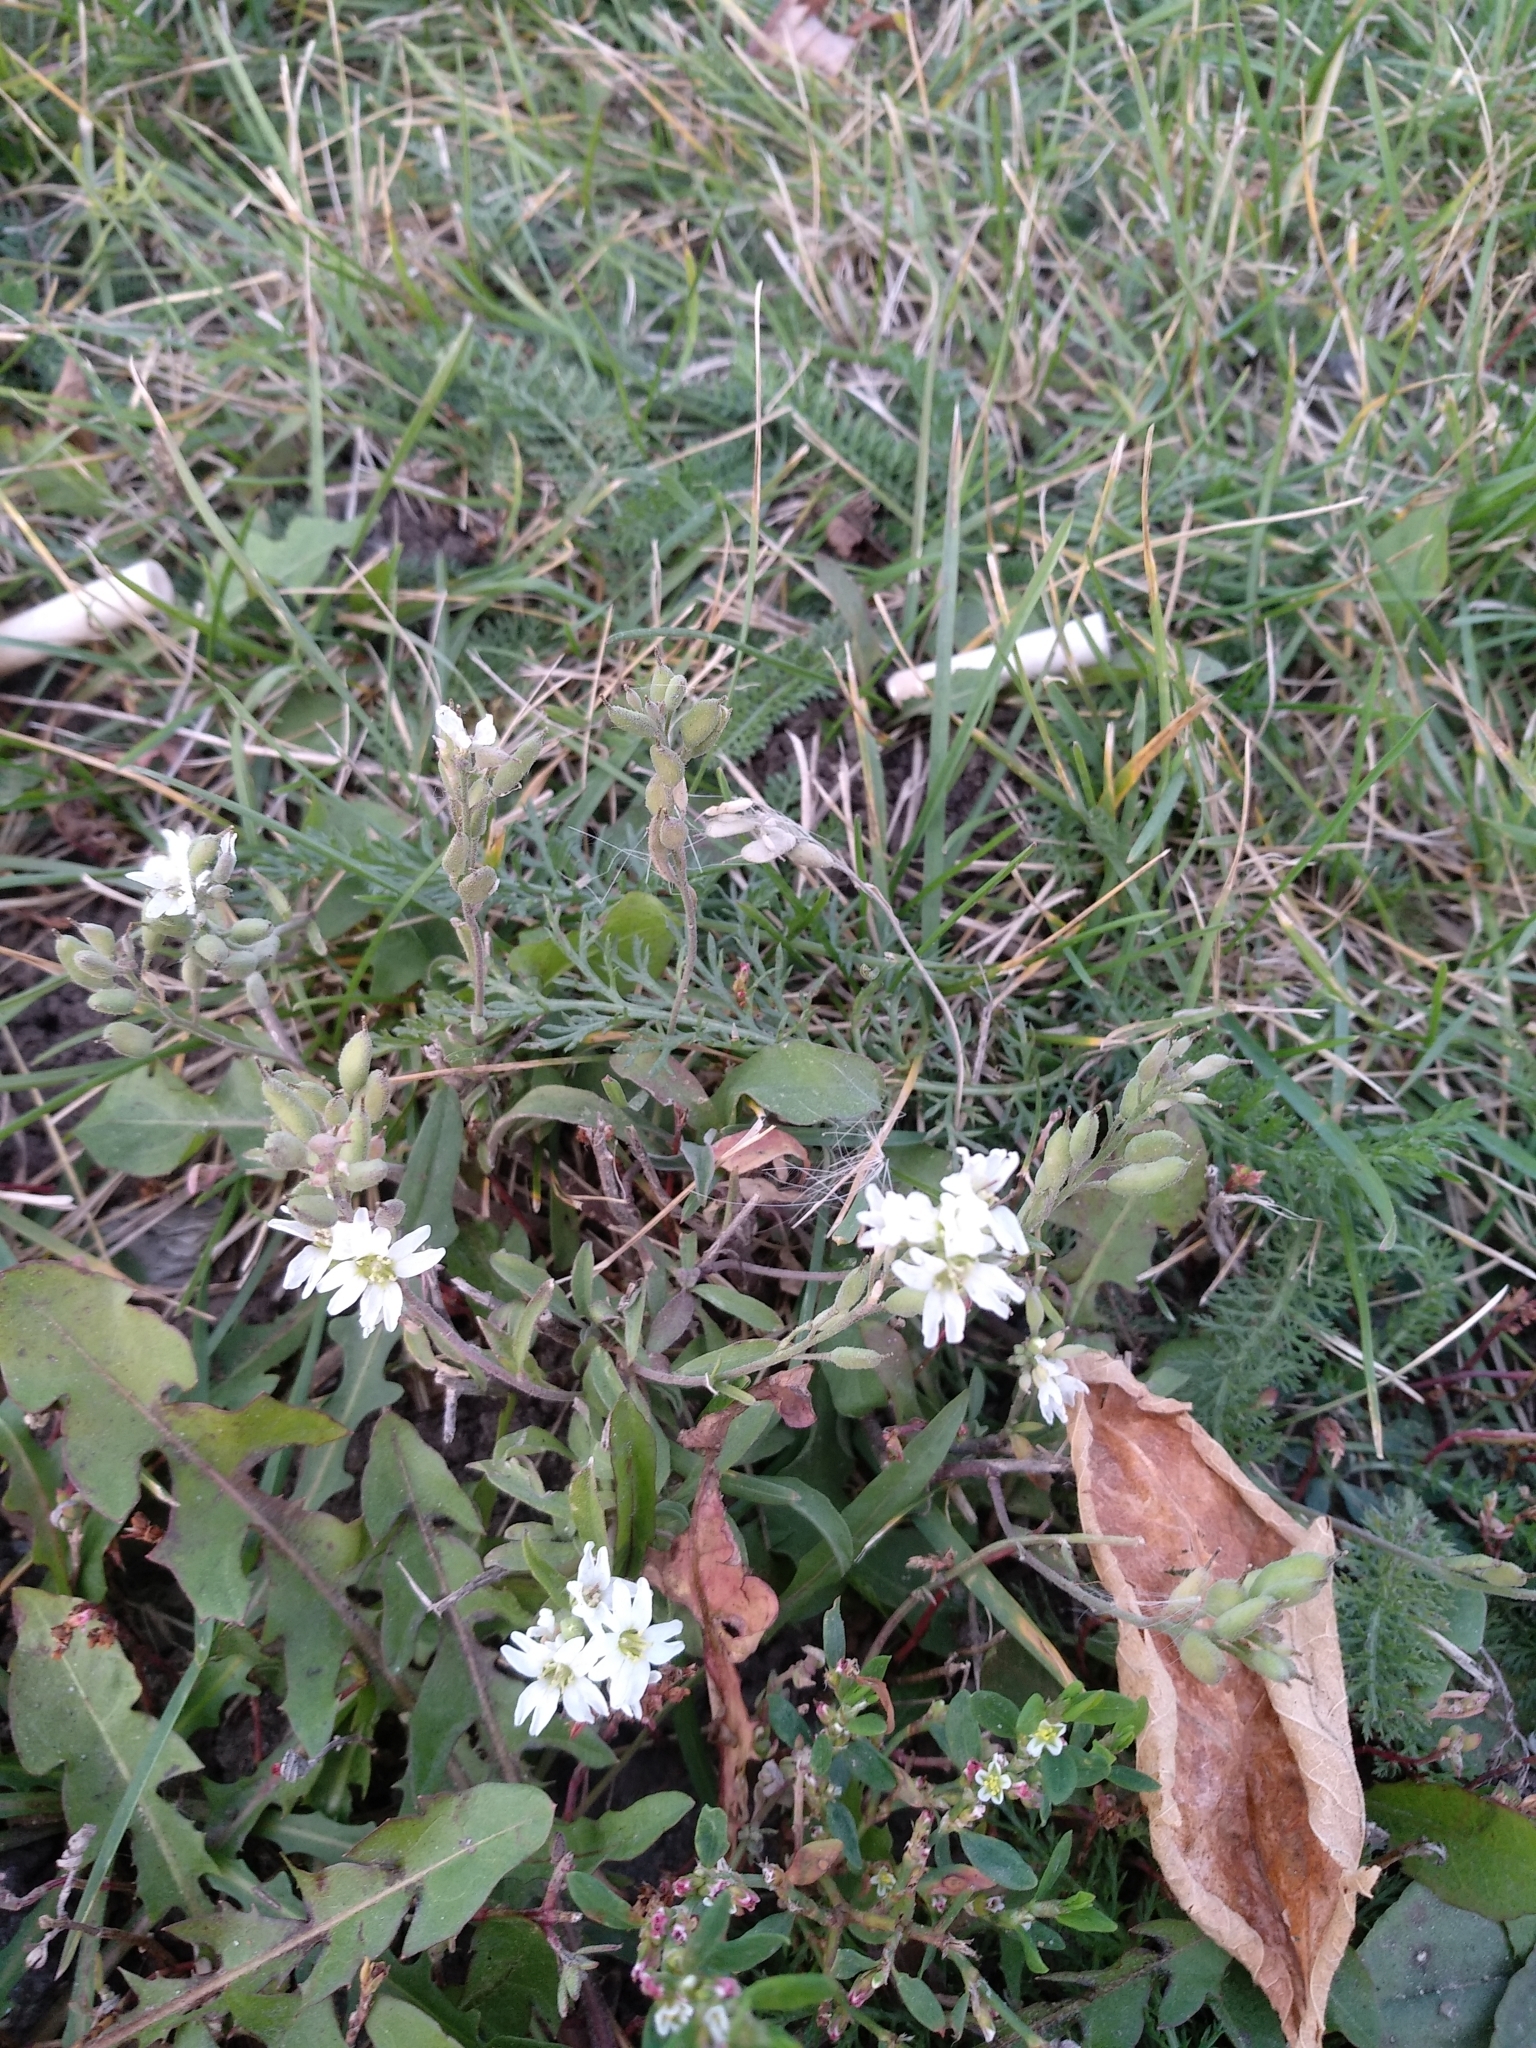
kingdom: Plantae
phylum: Tracheophyta
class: Magnoliopsida
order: Brassicales
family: Brassicaceae
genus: Berteroa
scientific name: Berteroa incana
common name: Hoary alison
